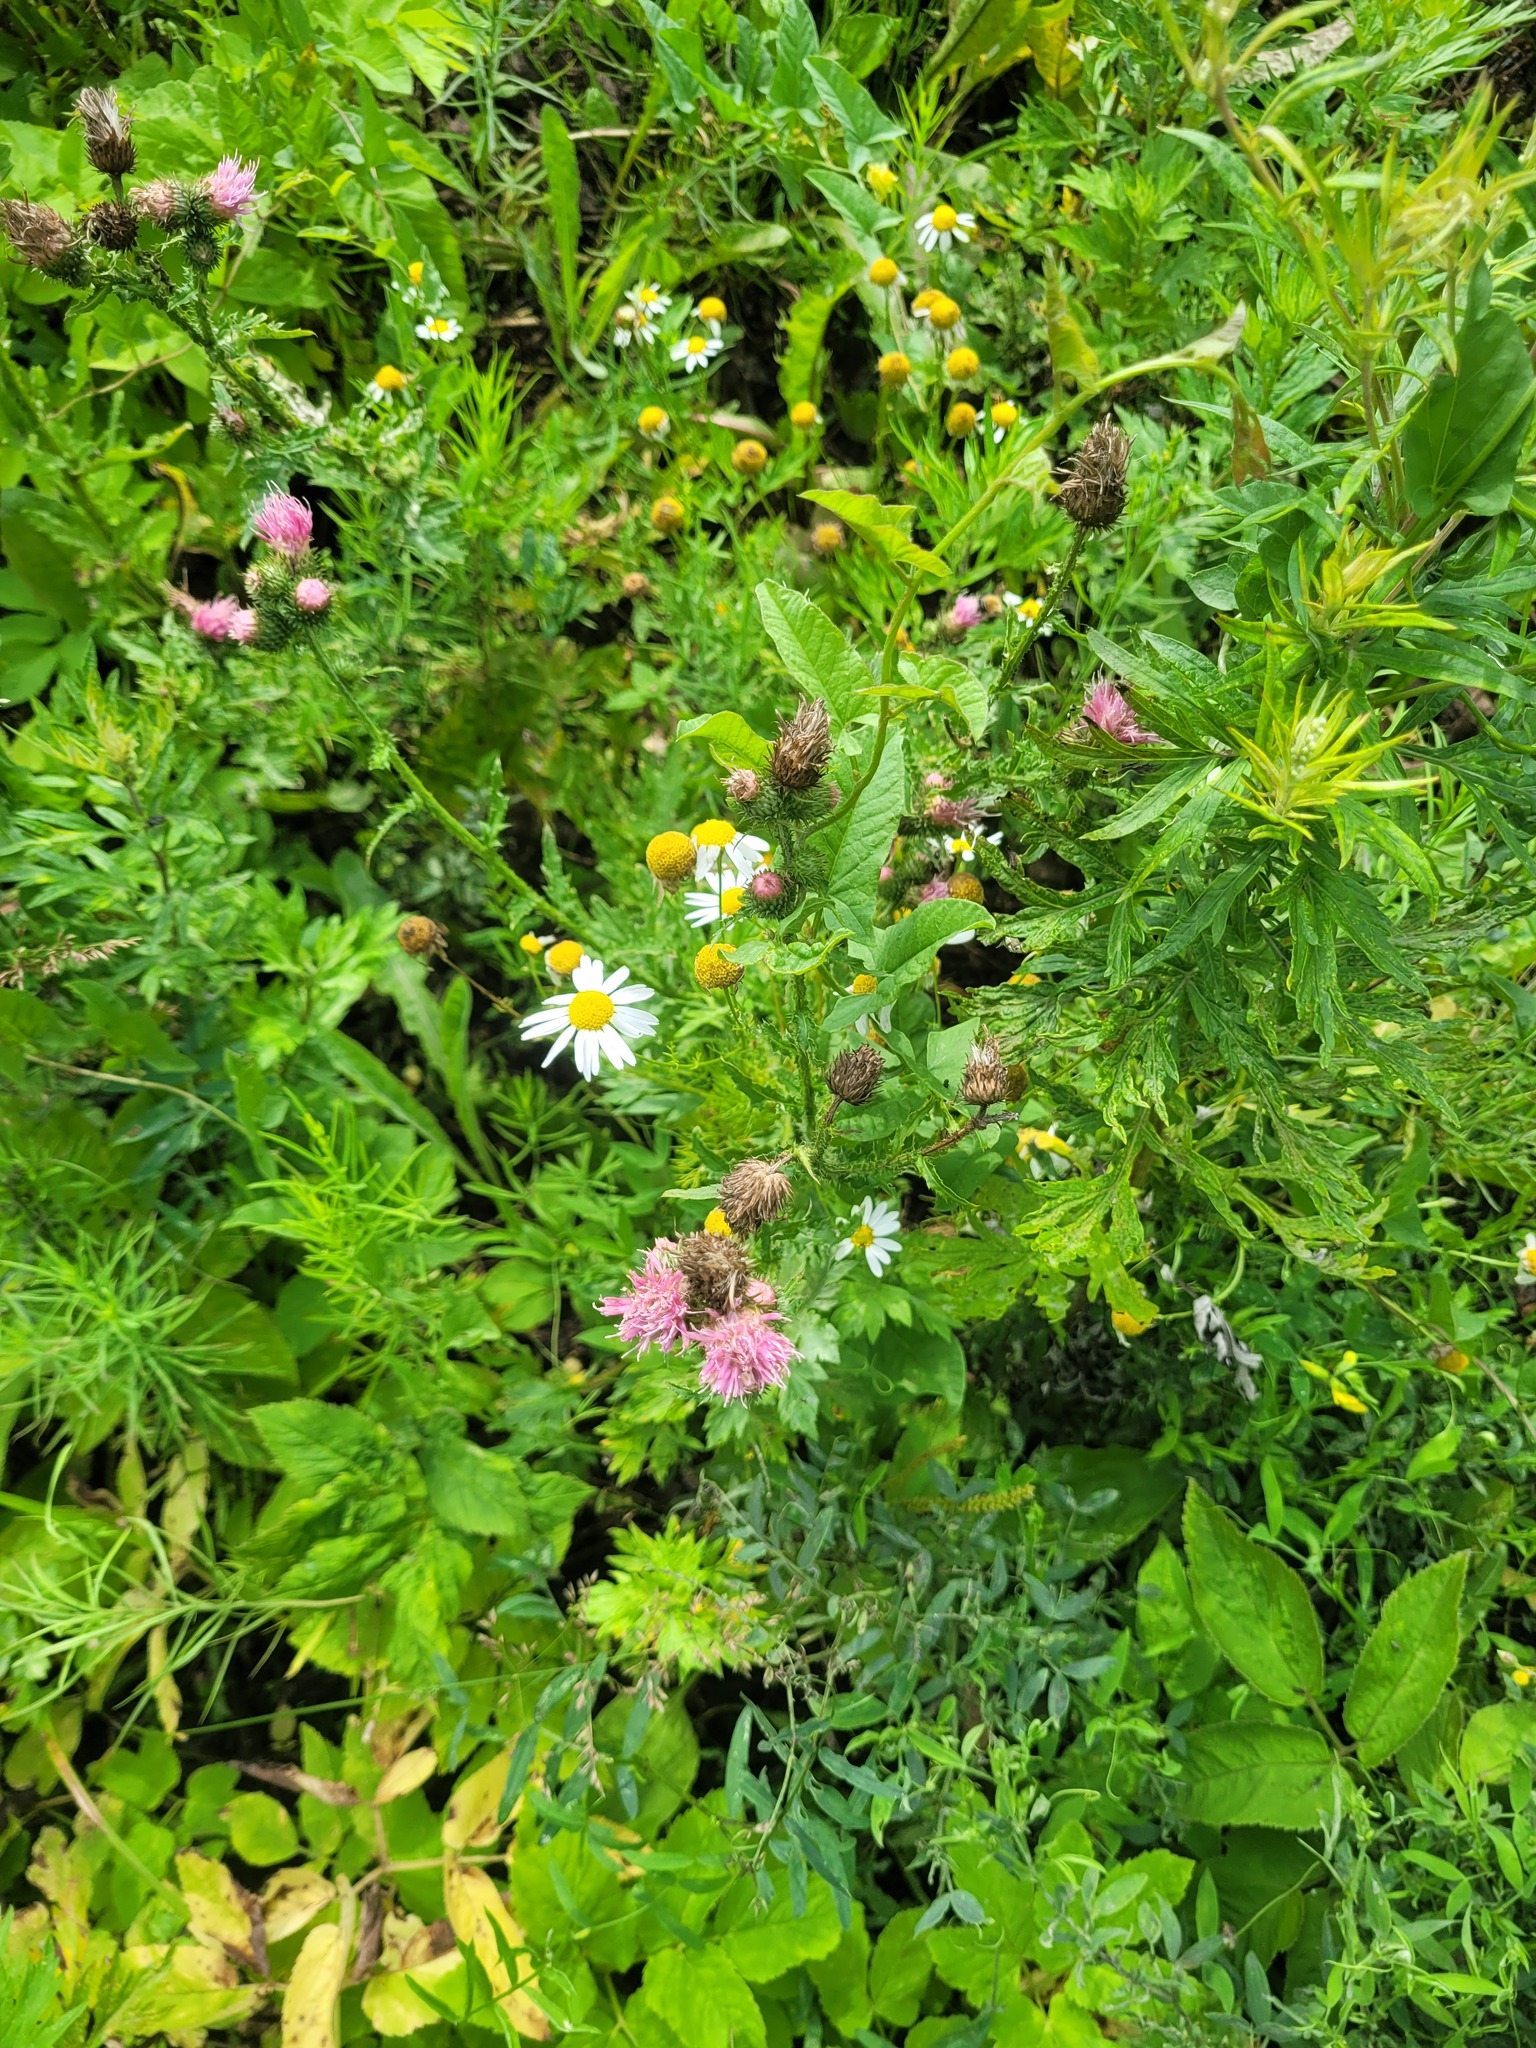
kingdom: Plantae
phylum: Tracheophyta
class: Magnoliopsida
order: Asterales
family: Asteraceae
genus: Tripleurospermum
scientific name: Tripleurospermum inodorum
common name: Scentless mayweed
